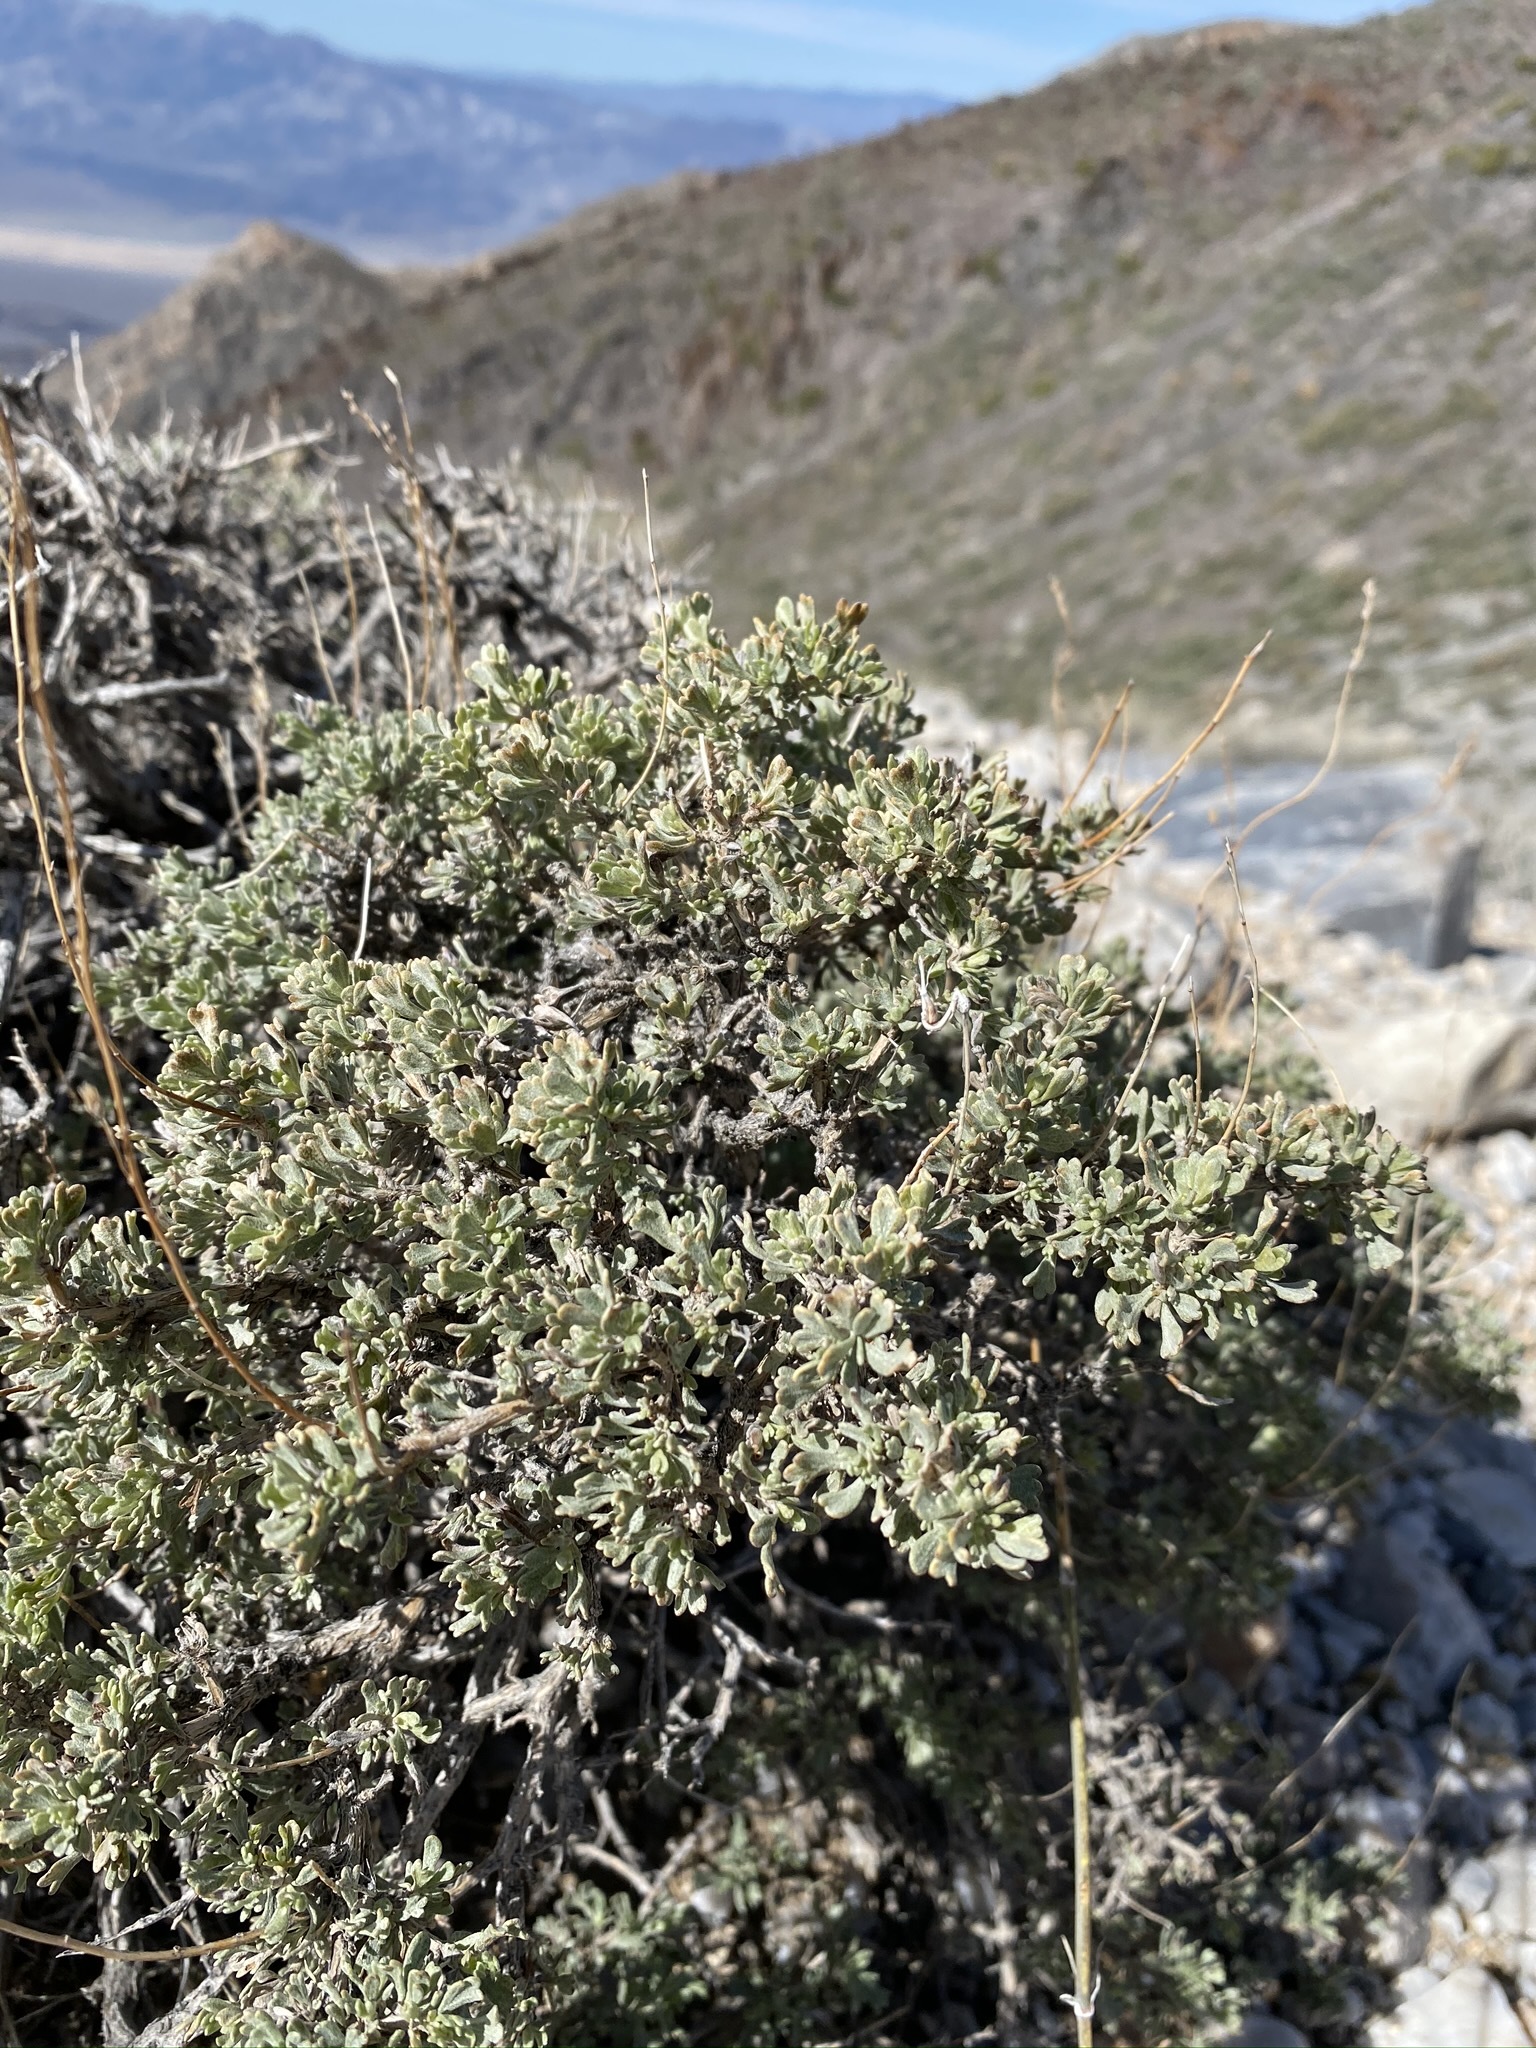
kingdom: Plantae
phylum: Tracheophyta
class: Magnoliopsida
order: Asterales
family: Asteraceae
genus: Artemisia
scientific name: Artemisia nova
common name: Black-sage
